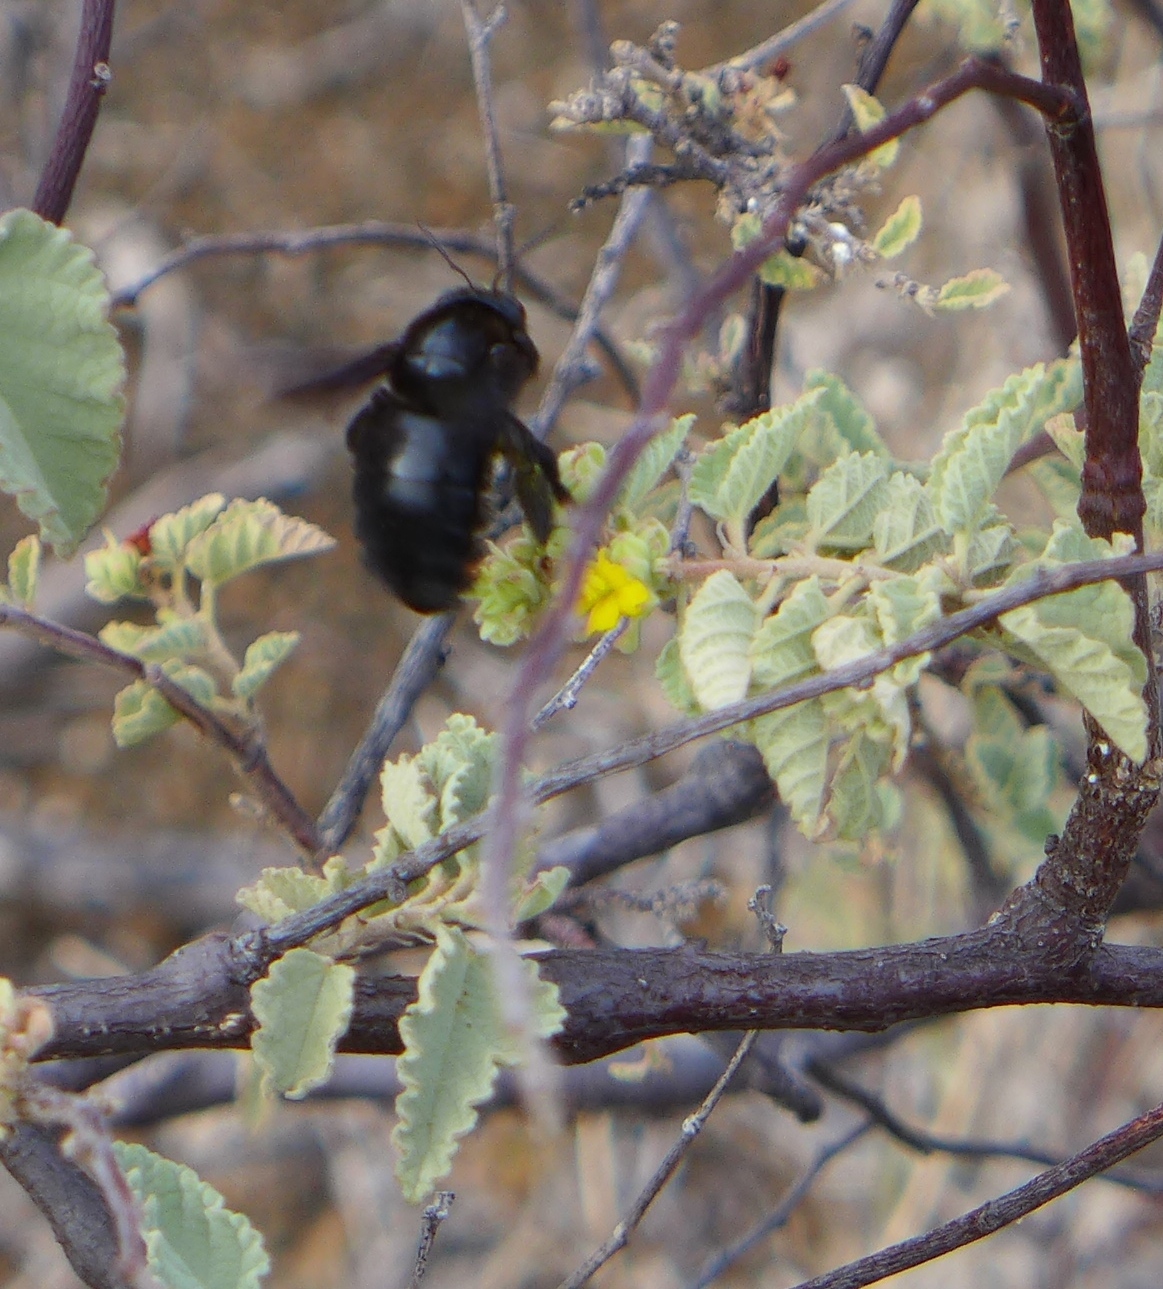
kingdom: Animalia
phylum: Arthropoda
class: Insecta
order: Hymenoptera
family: Apidae
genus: Xylocopa
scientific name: Xylocopa darwini
